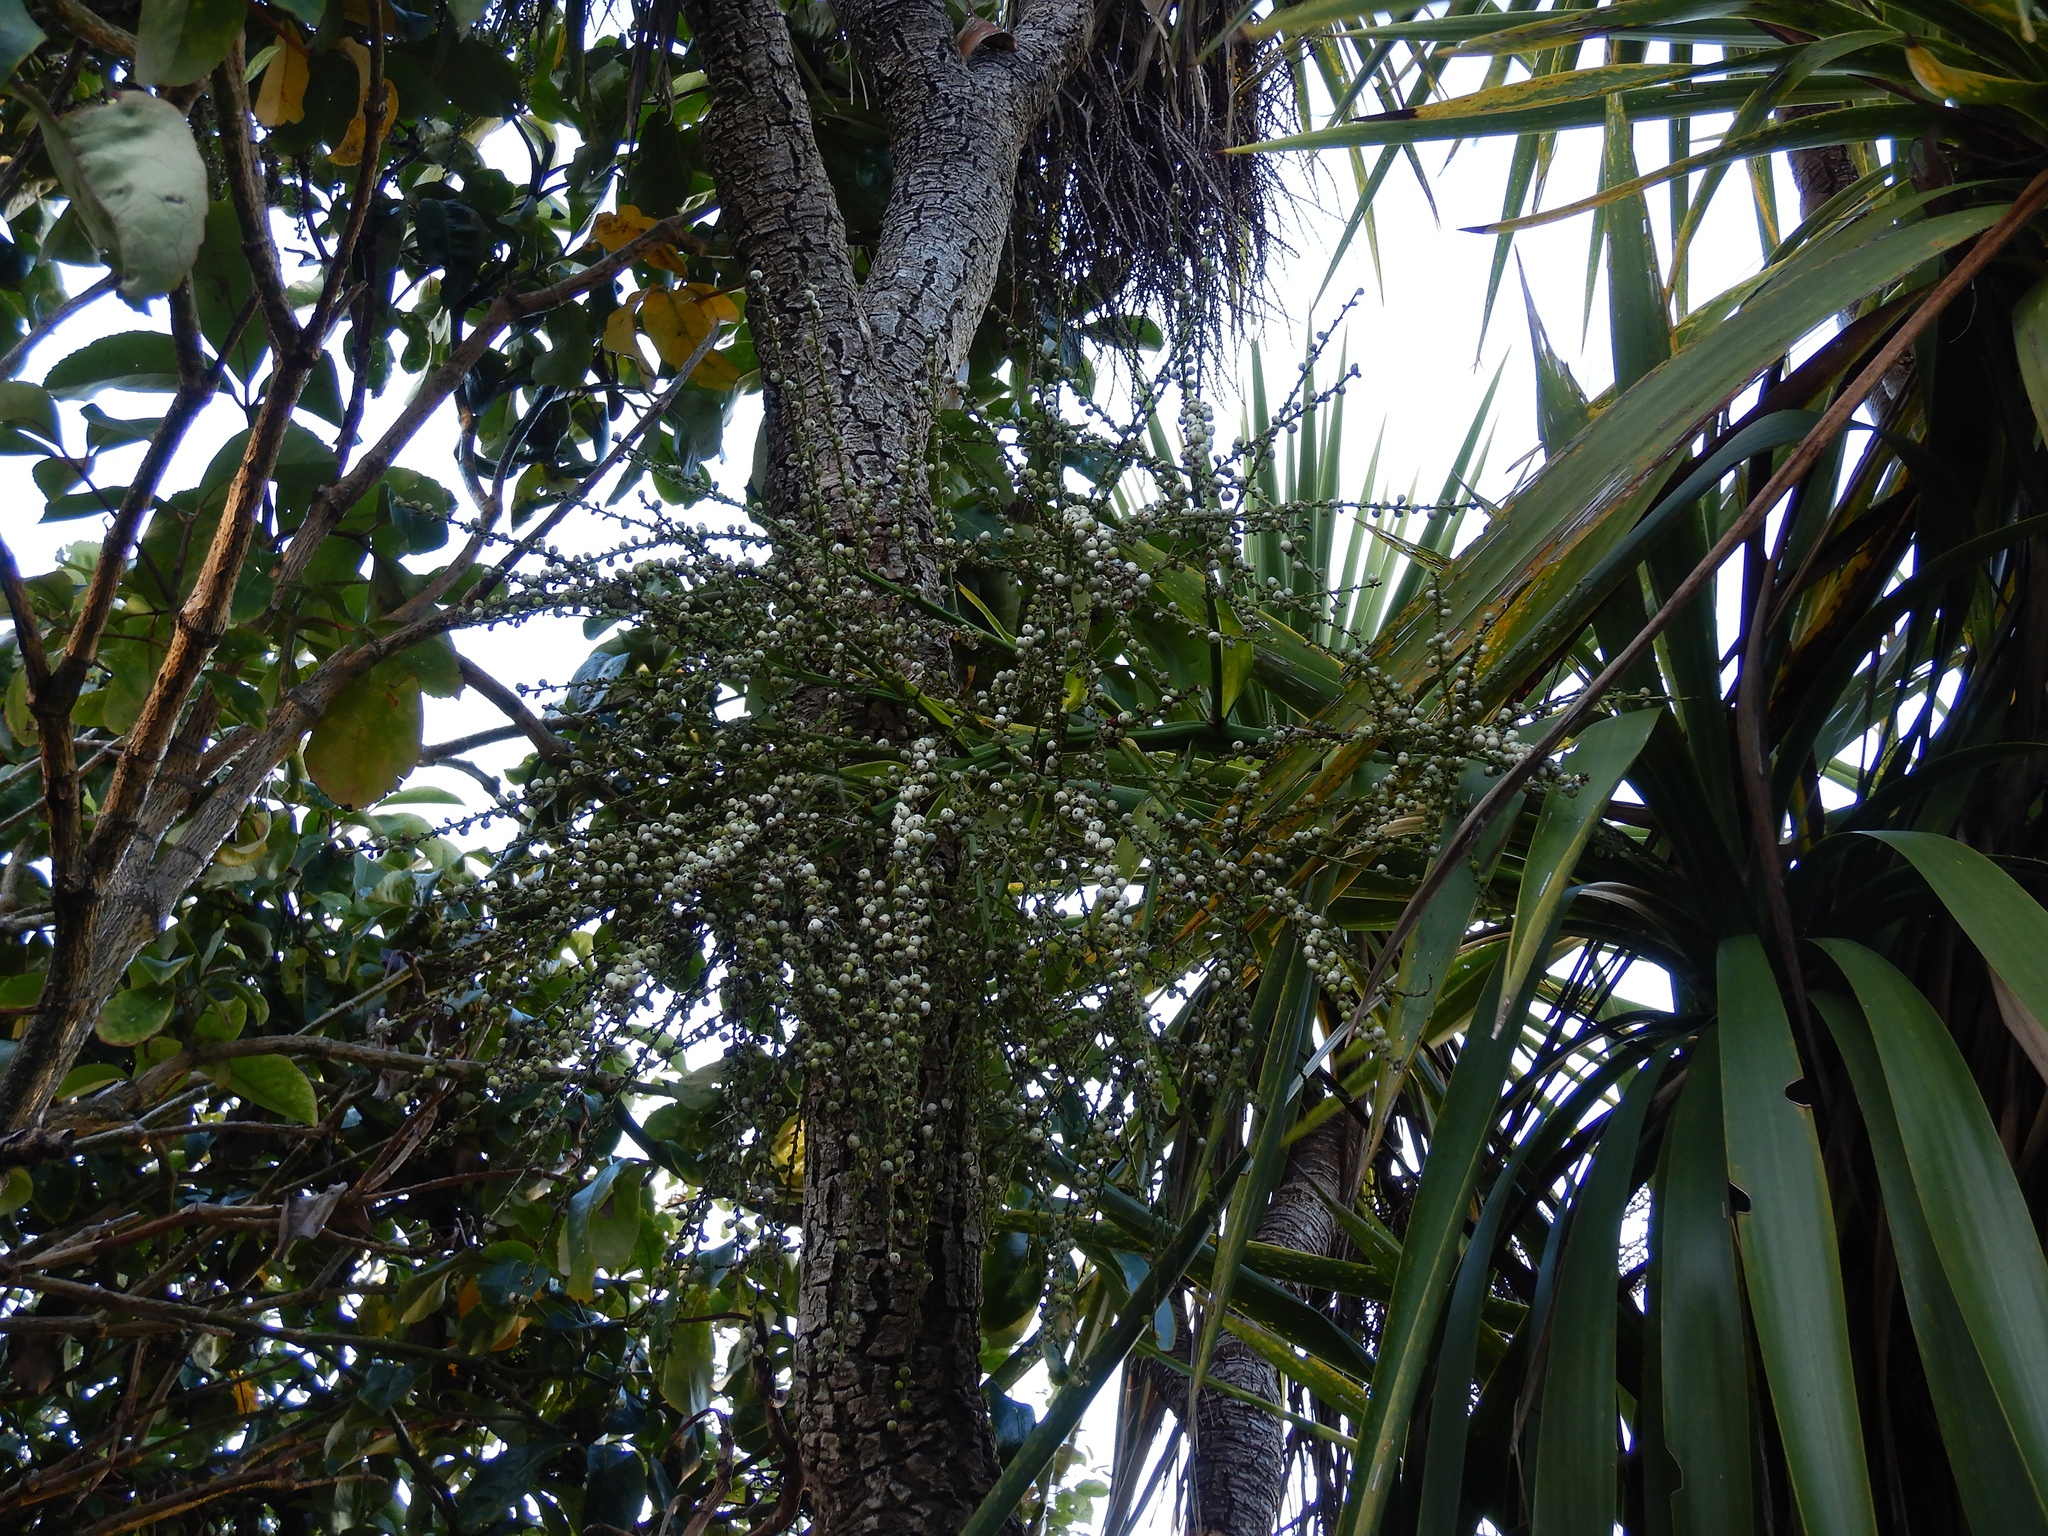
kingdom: Plantae
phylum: Tracheophyta
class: Liliopsida
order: Asparagales
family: Asparagaceae
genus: Cordyline
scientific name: Cordyline australis
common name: Cabbage-palm
